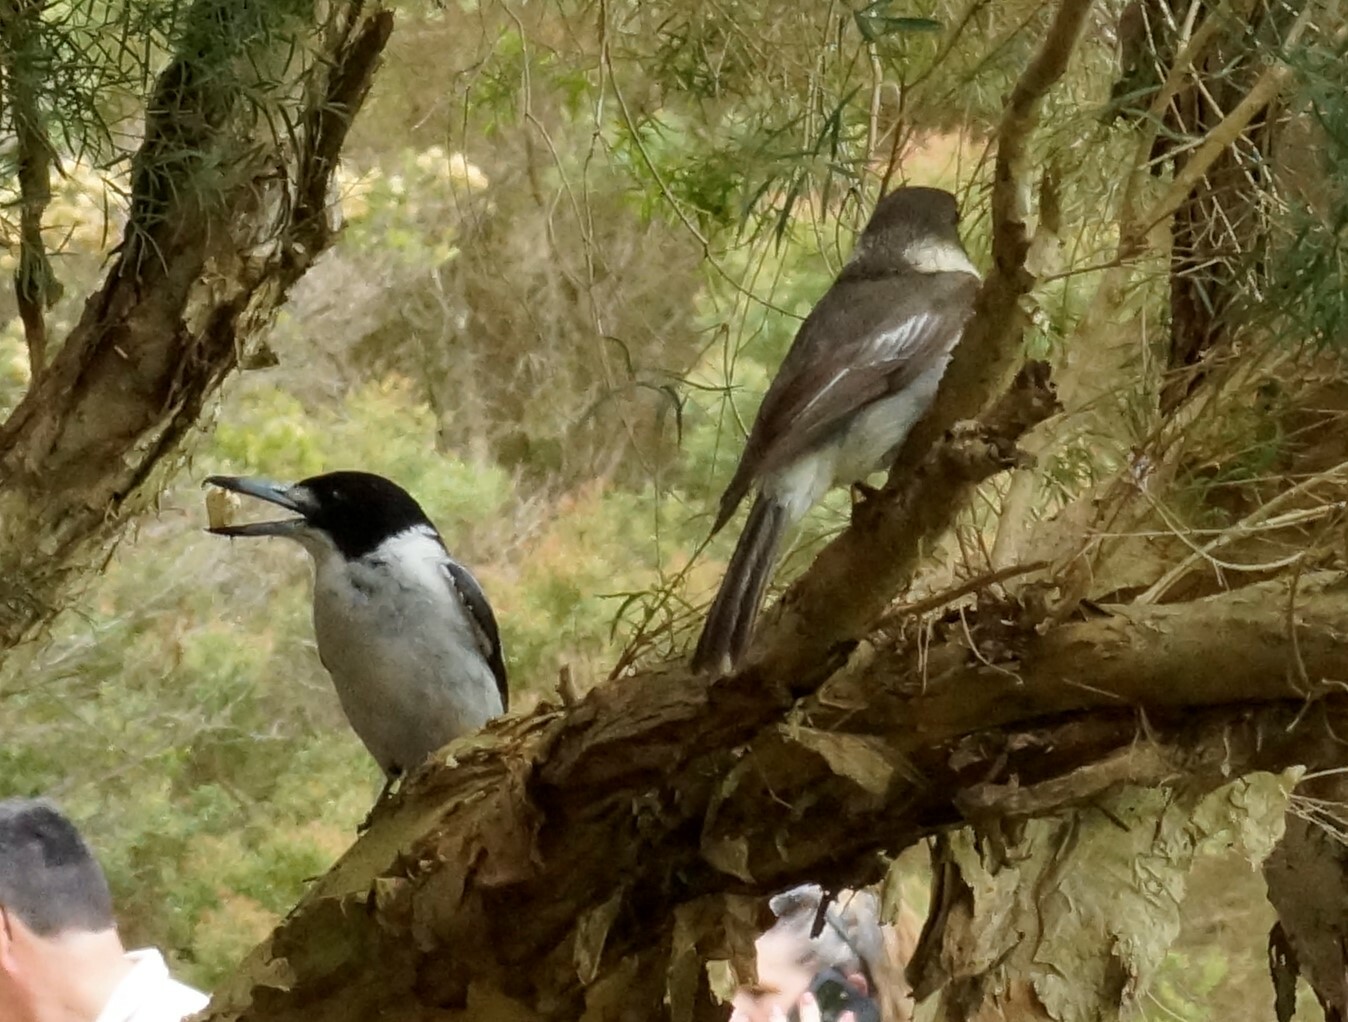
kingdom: Animalia
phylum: Chordata
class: Aves
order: Passeriformes
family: Cracticidae
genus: Cracticus
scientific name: Cracticus torquatus
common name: Grey butcherbird
